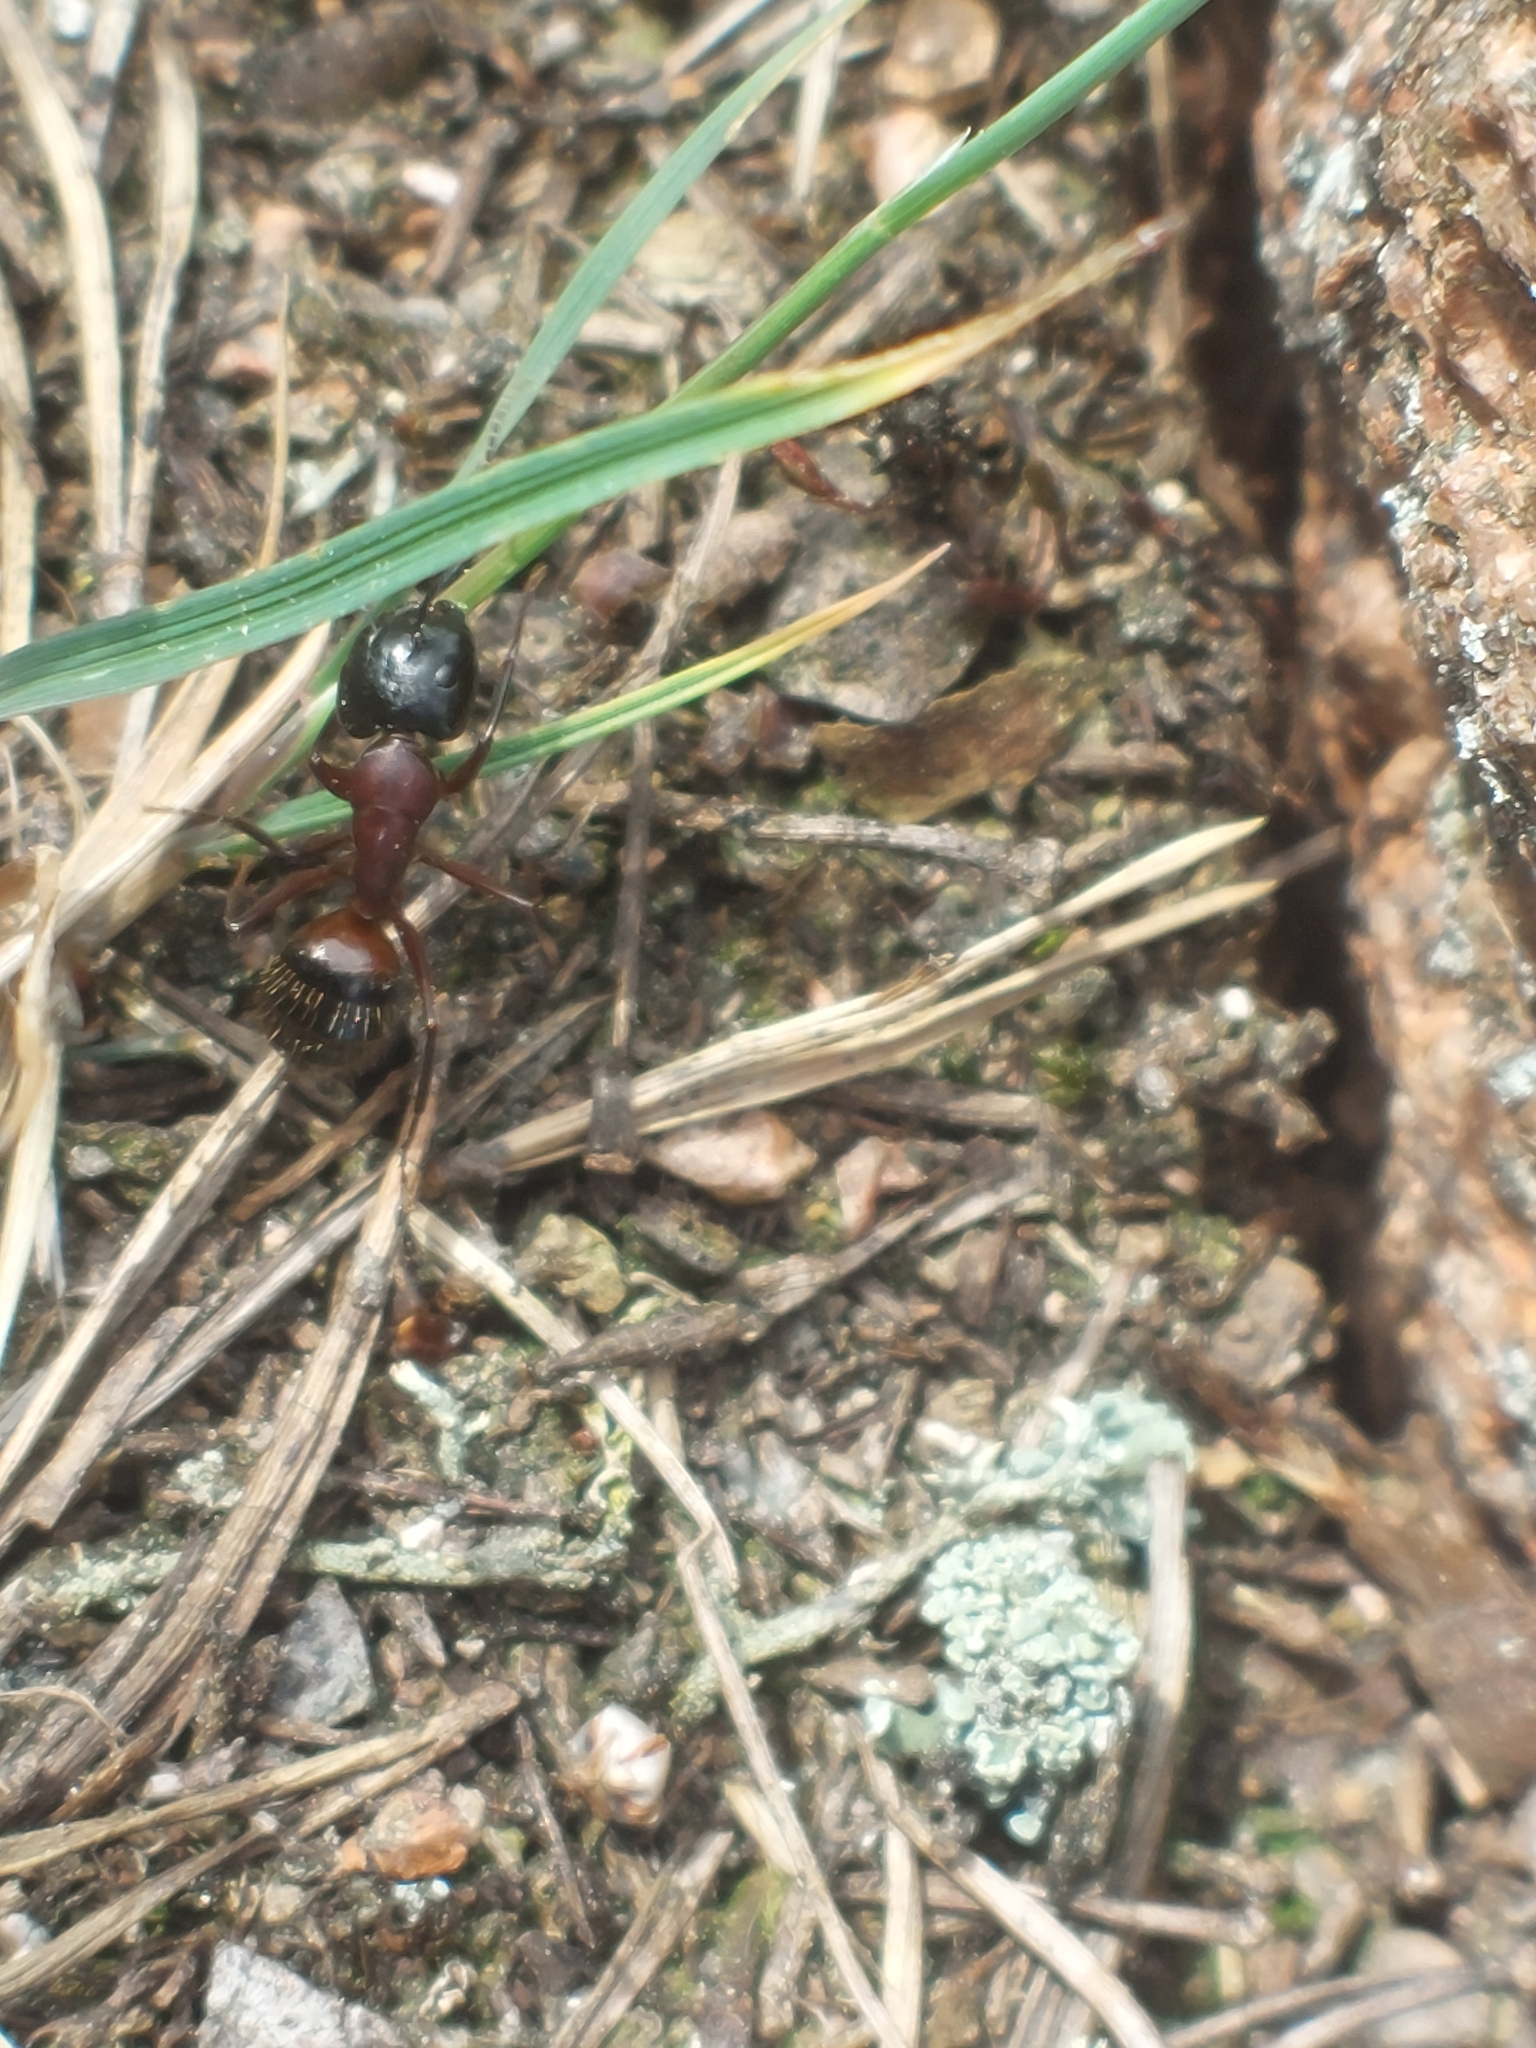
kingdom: Animalia
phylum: Arthropoda
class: Insecta
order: Hymenoptera
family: Formicidae
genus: Camponotus
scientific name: Camponotus ligniperdus
